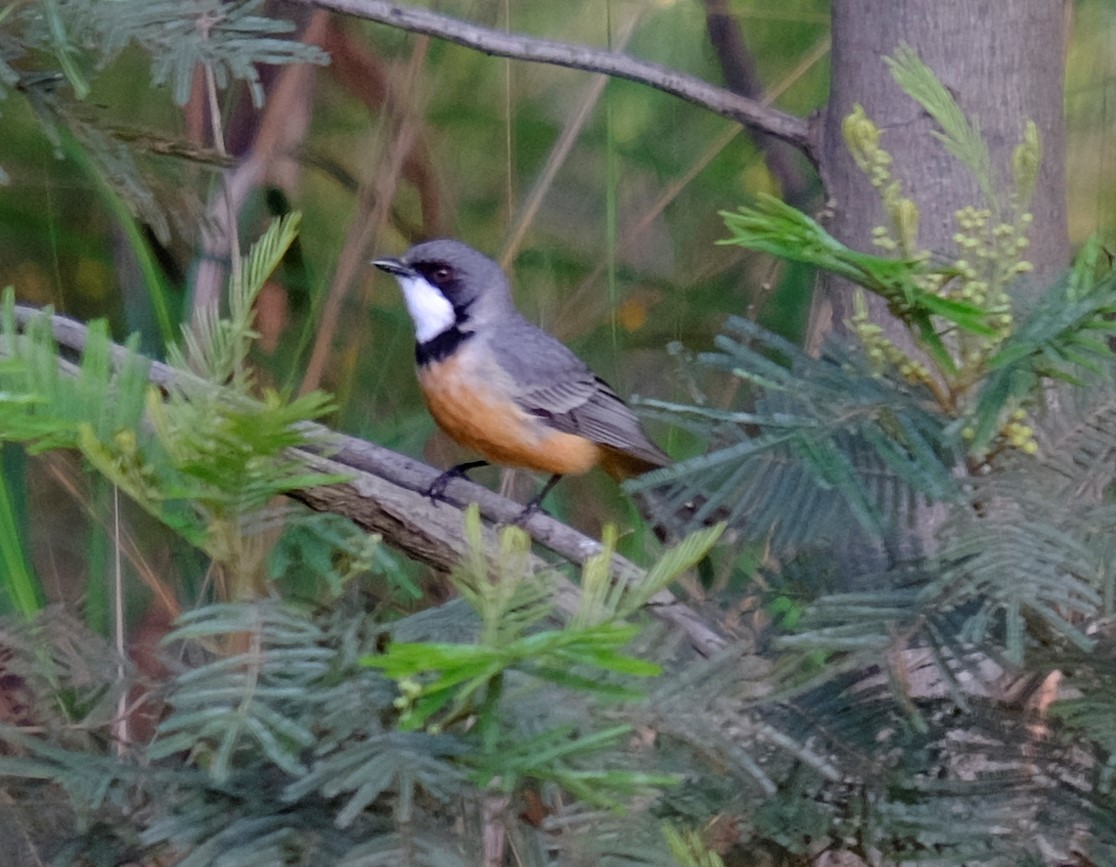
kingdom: Animalia
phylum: Chordata
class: Aves
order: Passeriformes
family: Pachycephalidae
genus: Pachycephala
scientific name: Pachycephala rufiventris
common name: Rufous whistler
